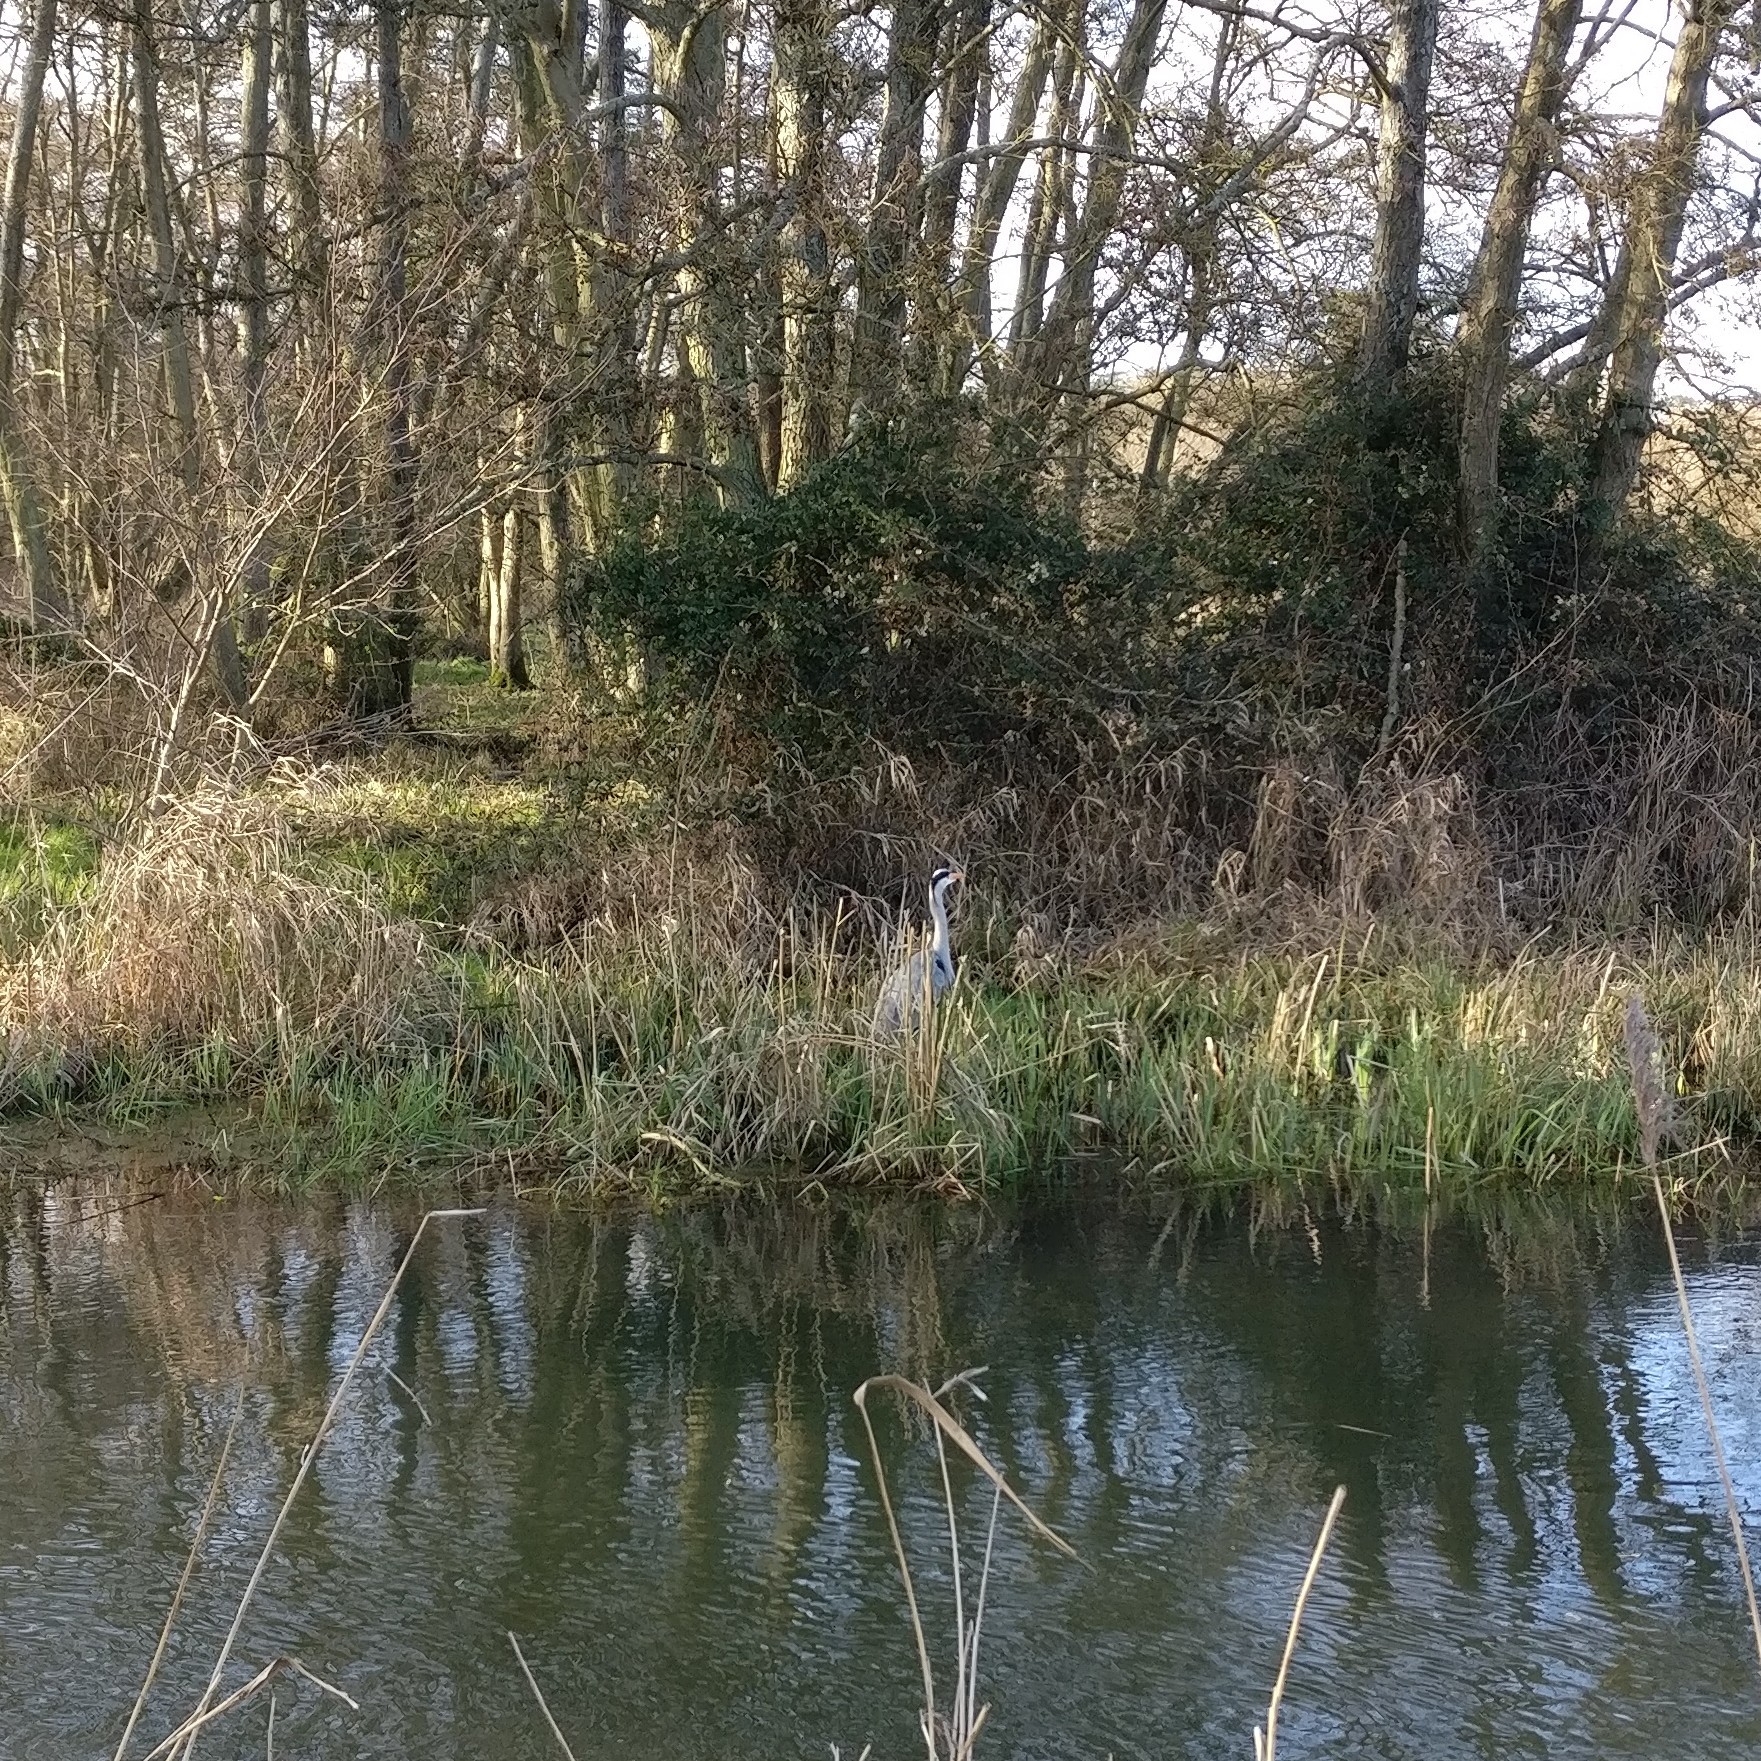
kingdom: Animalia
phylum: Chordata
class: Aves
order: Pelecaniformes
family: Ardeidae
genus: Ardea
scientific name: Ardea cinerea
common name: Grey heron
